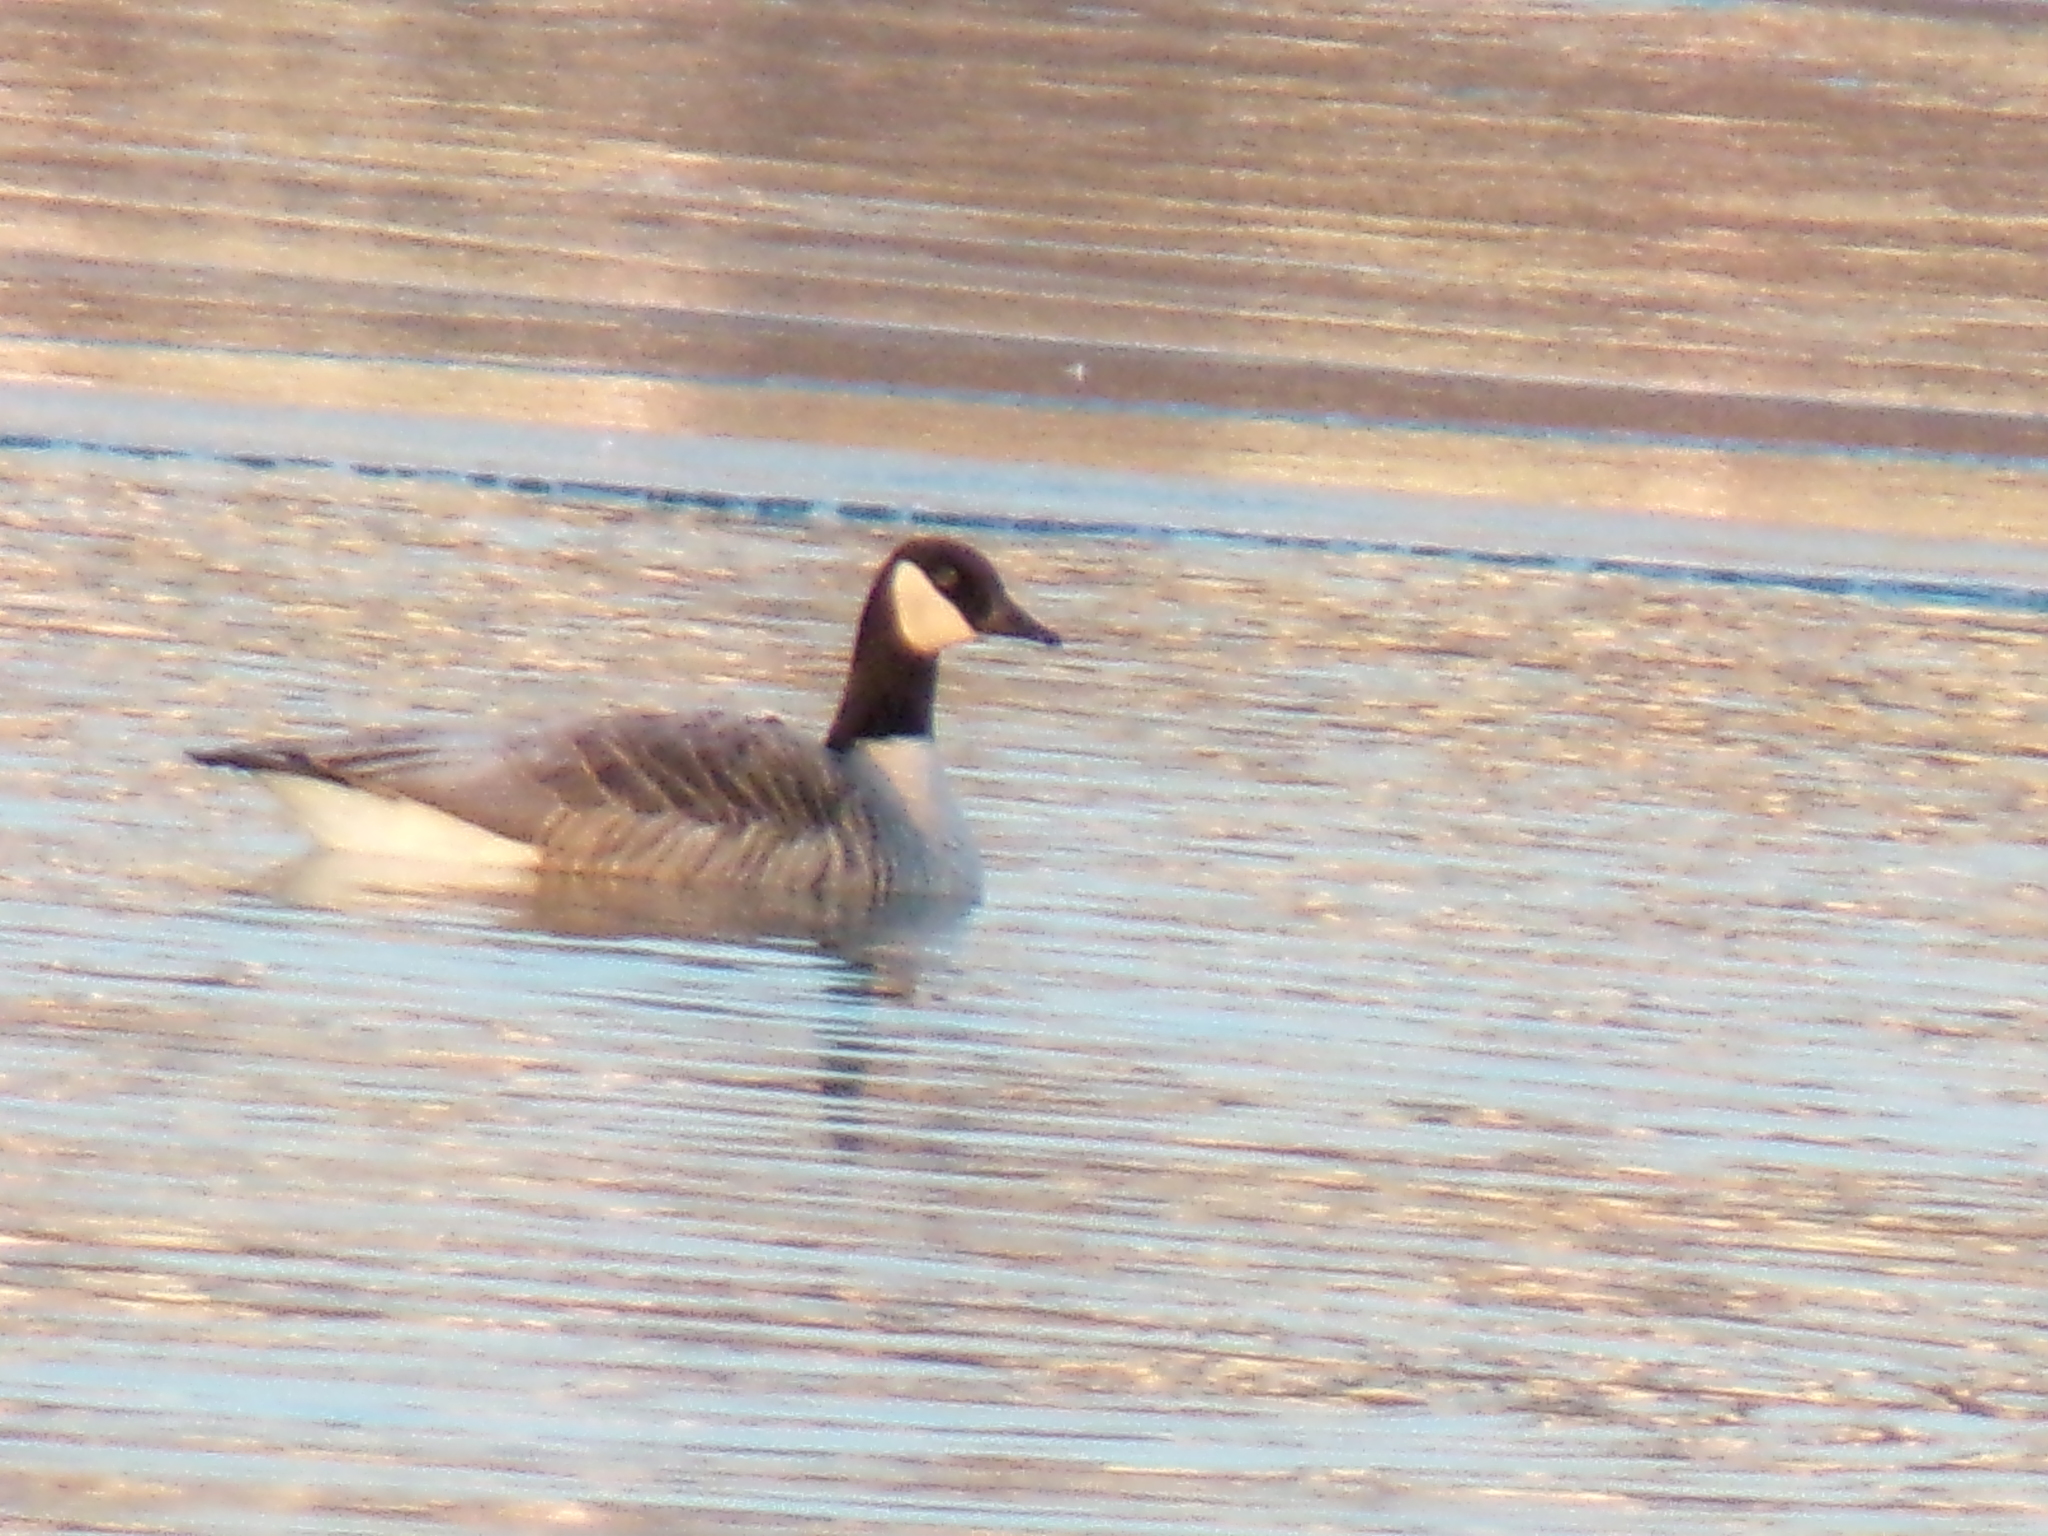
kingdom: Animalia
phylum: Chordata
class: Aves
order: Anseriformes
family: Anatidae
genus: Branta
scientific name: Branta canadensis
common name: Canada goose
